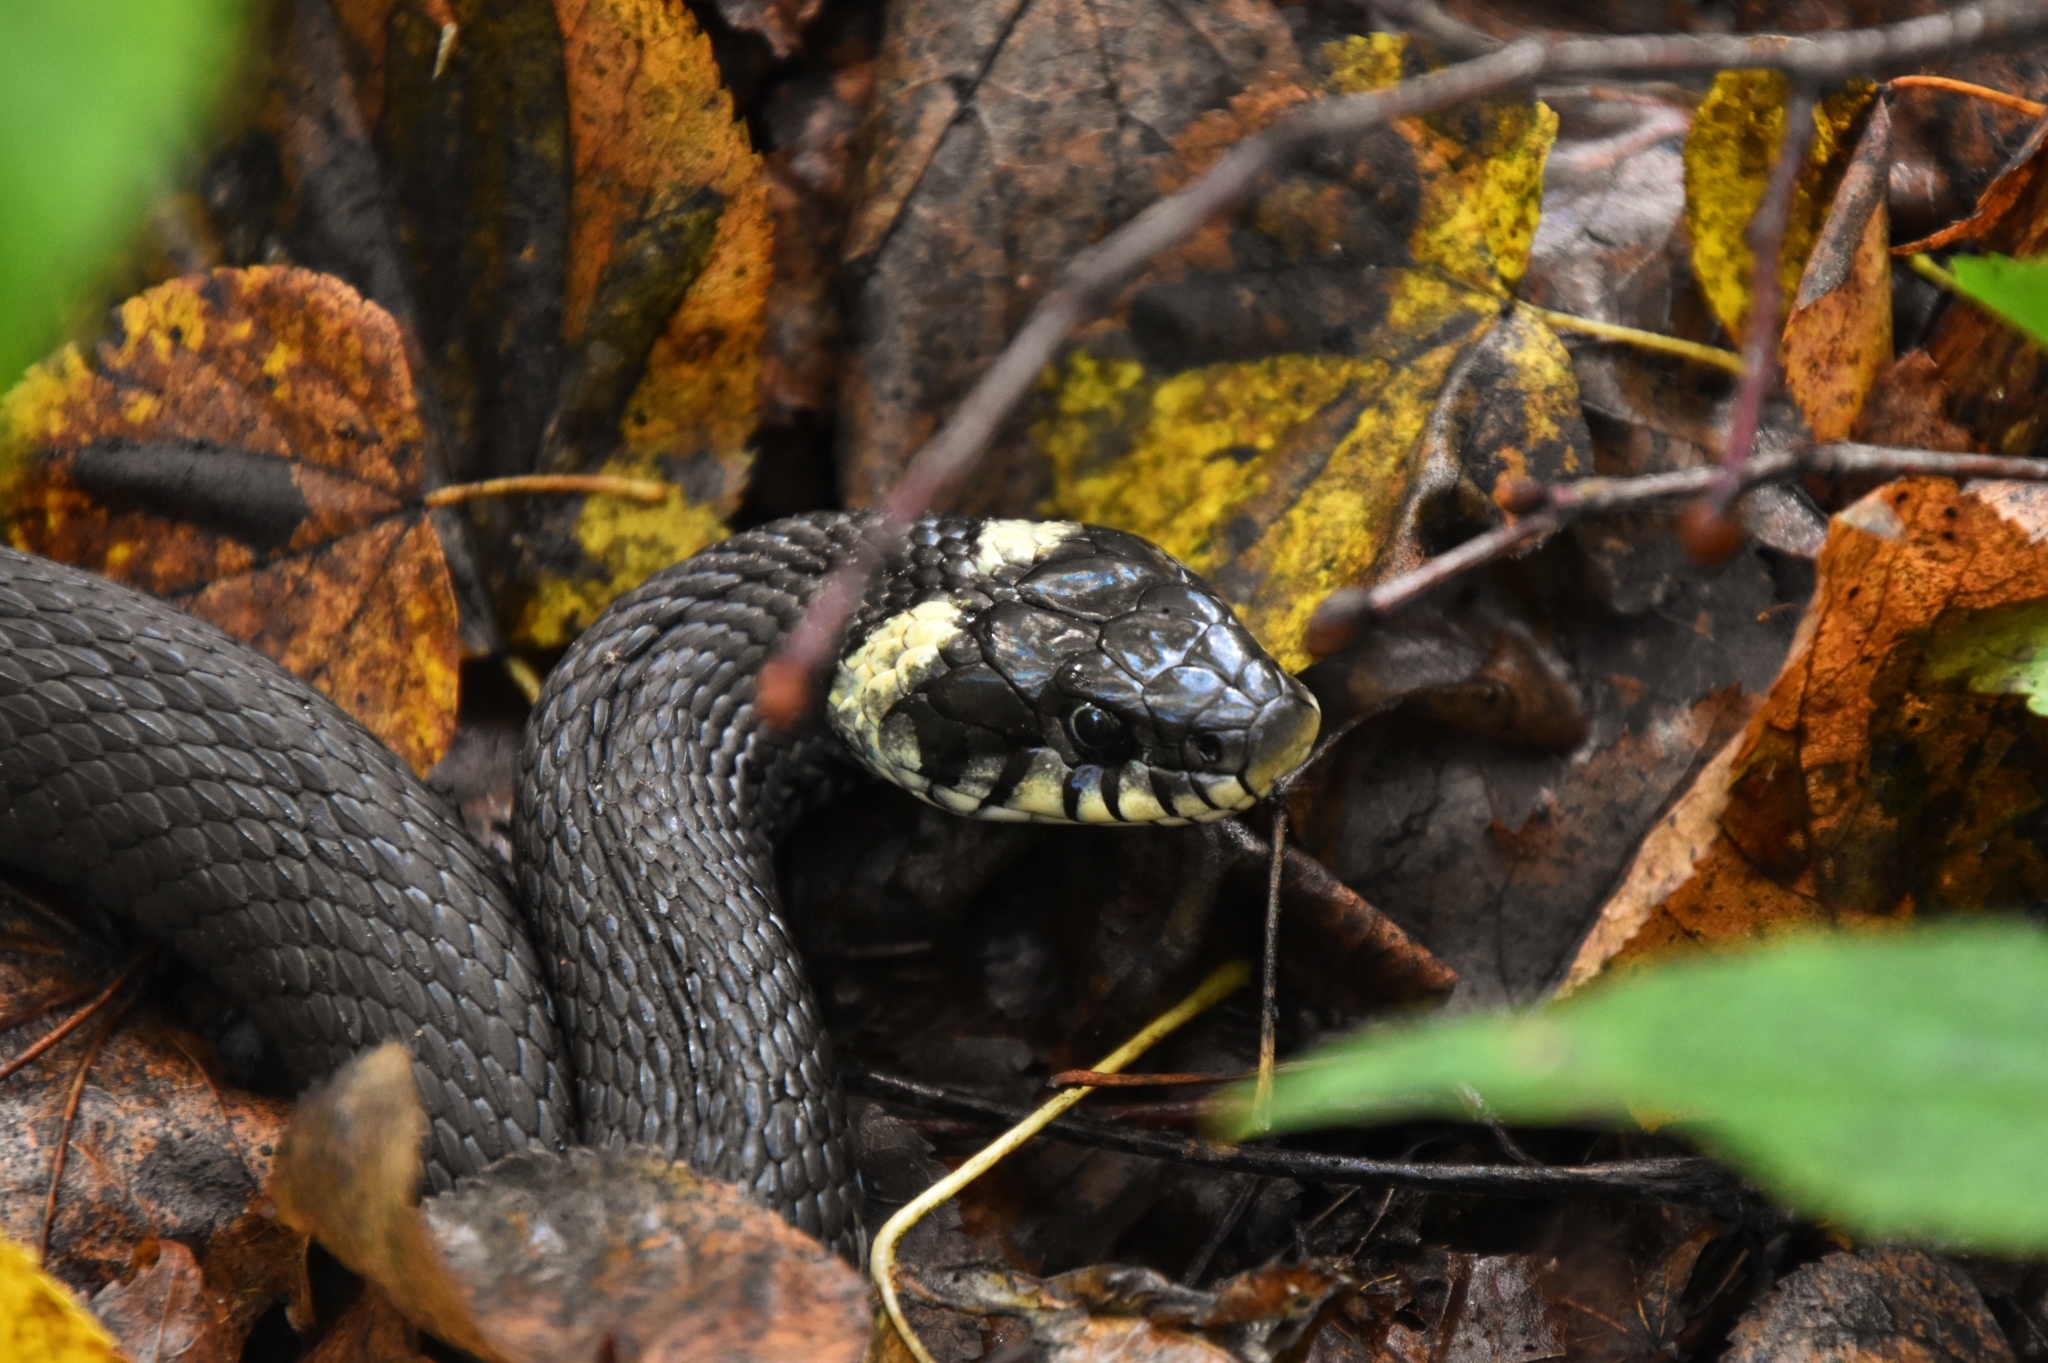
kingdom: Animalia
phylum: Chordata
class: Squamata
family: Colubridae
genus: Natrix
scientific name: Natrix natrix
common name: Grass snake
